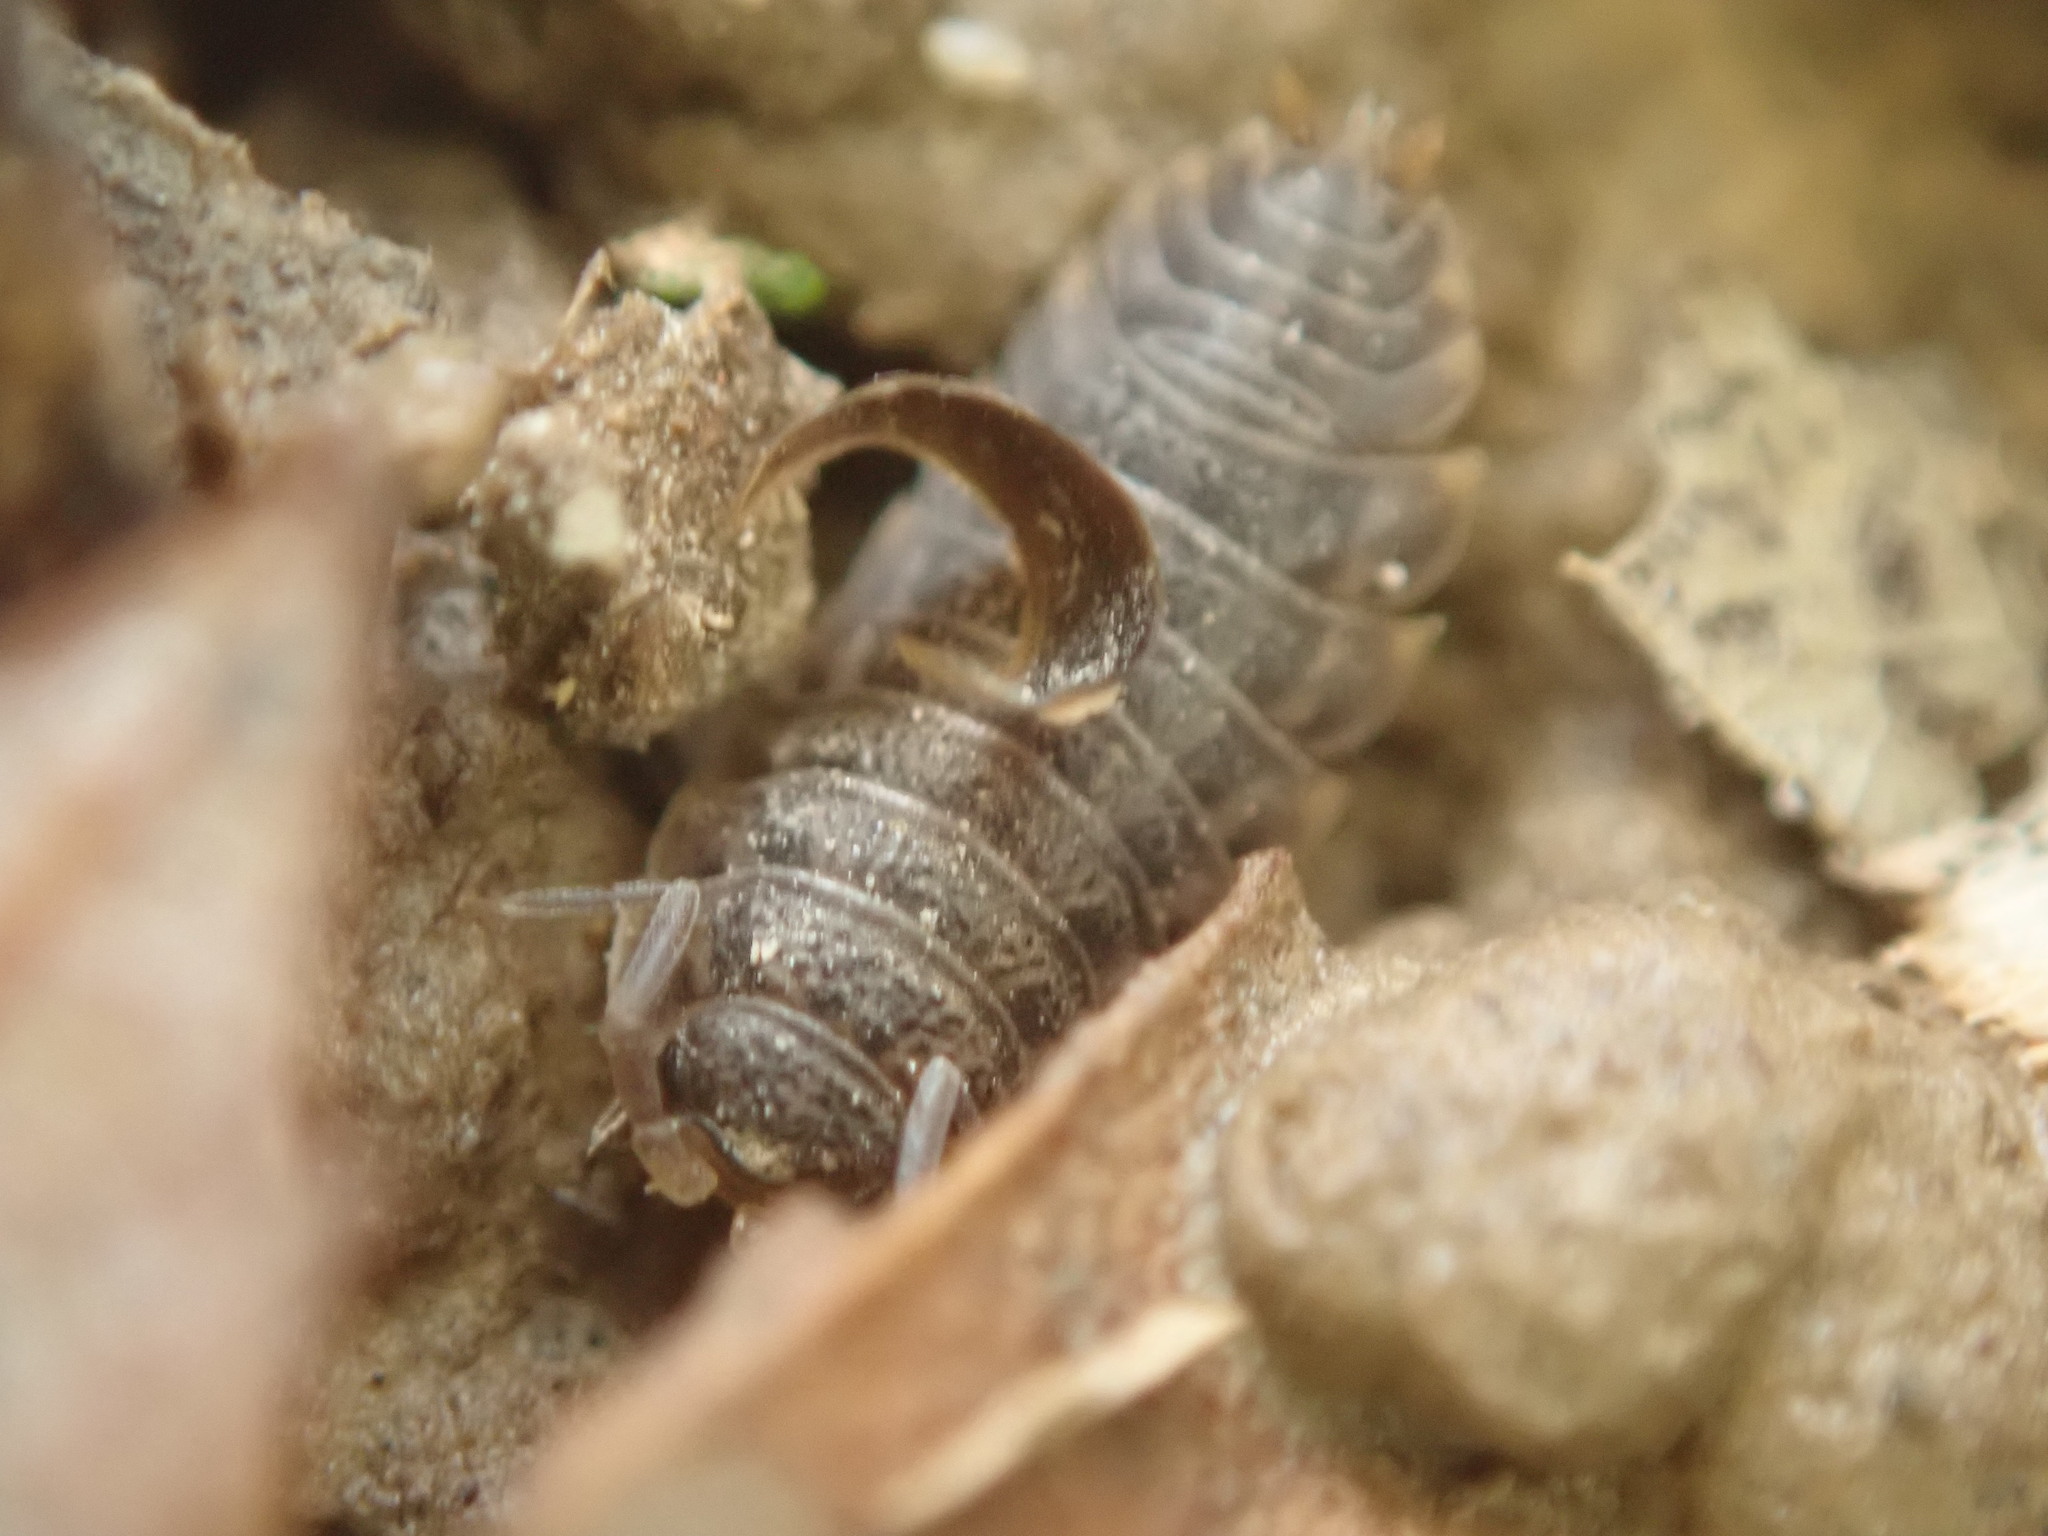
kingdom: Animalia
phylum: Arthropoda
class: Malacostraca
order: Isopoda
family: Trachelipodidae
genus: Trachelipus
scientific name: Trachelipus rathkii
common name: Isopod
